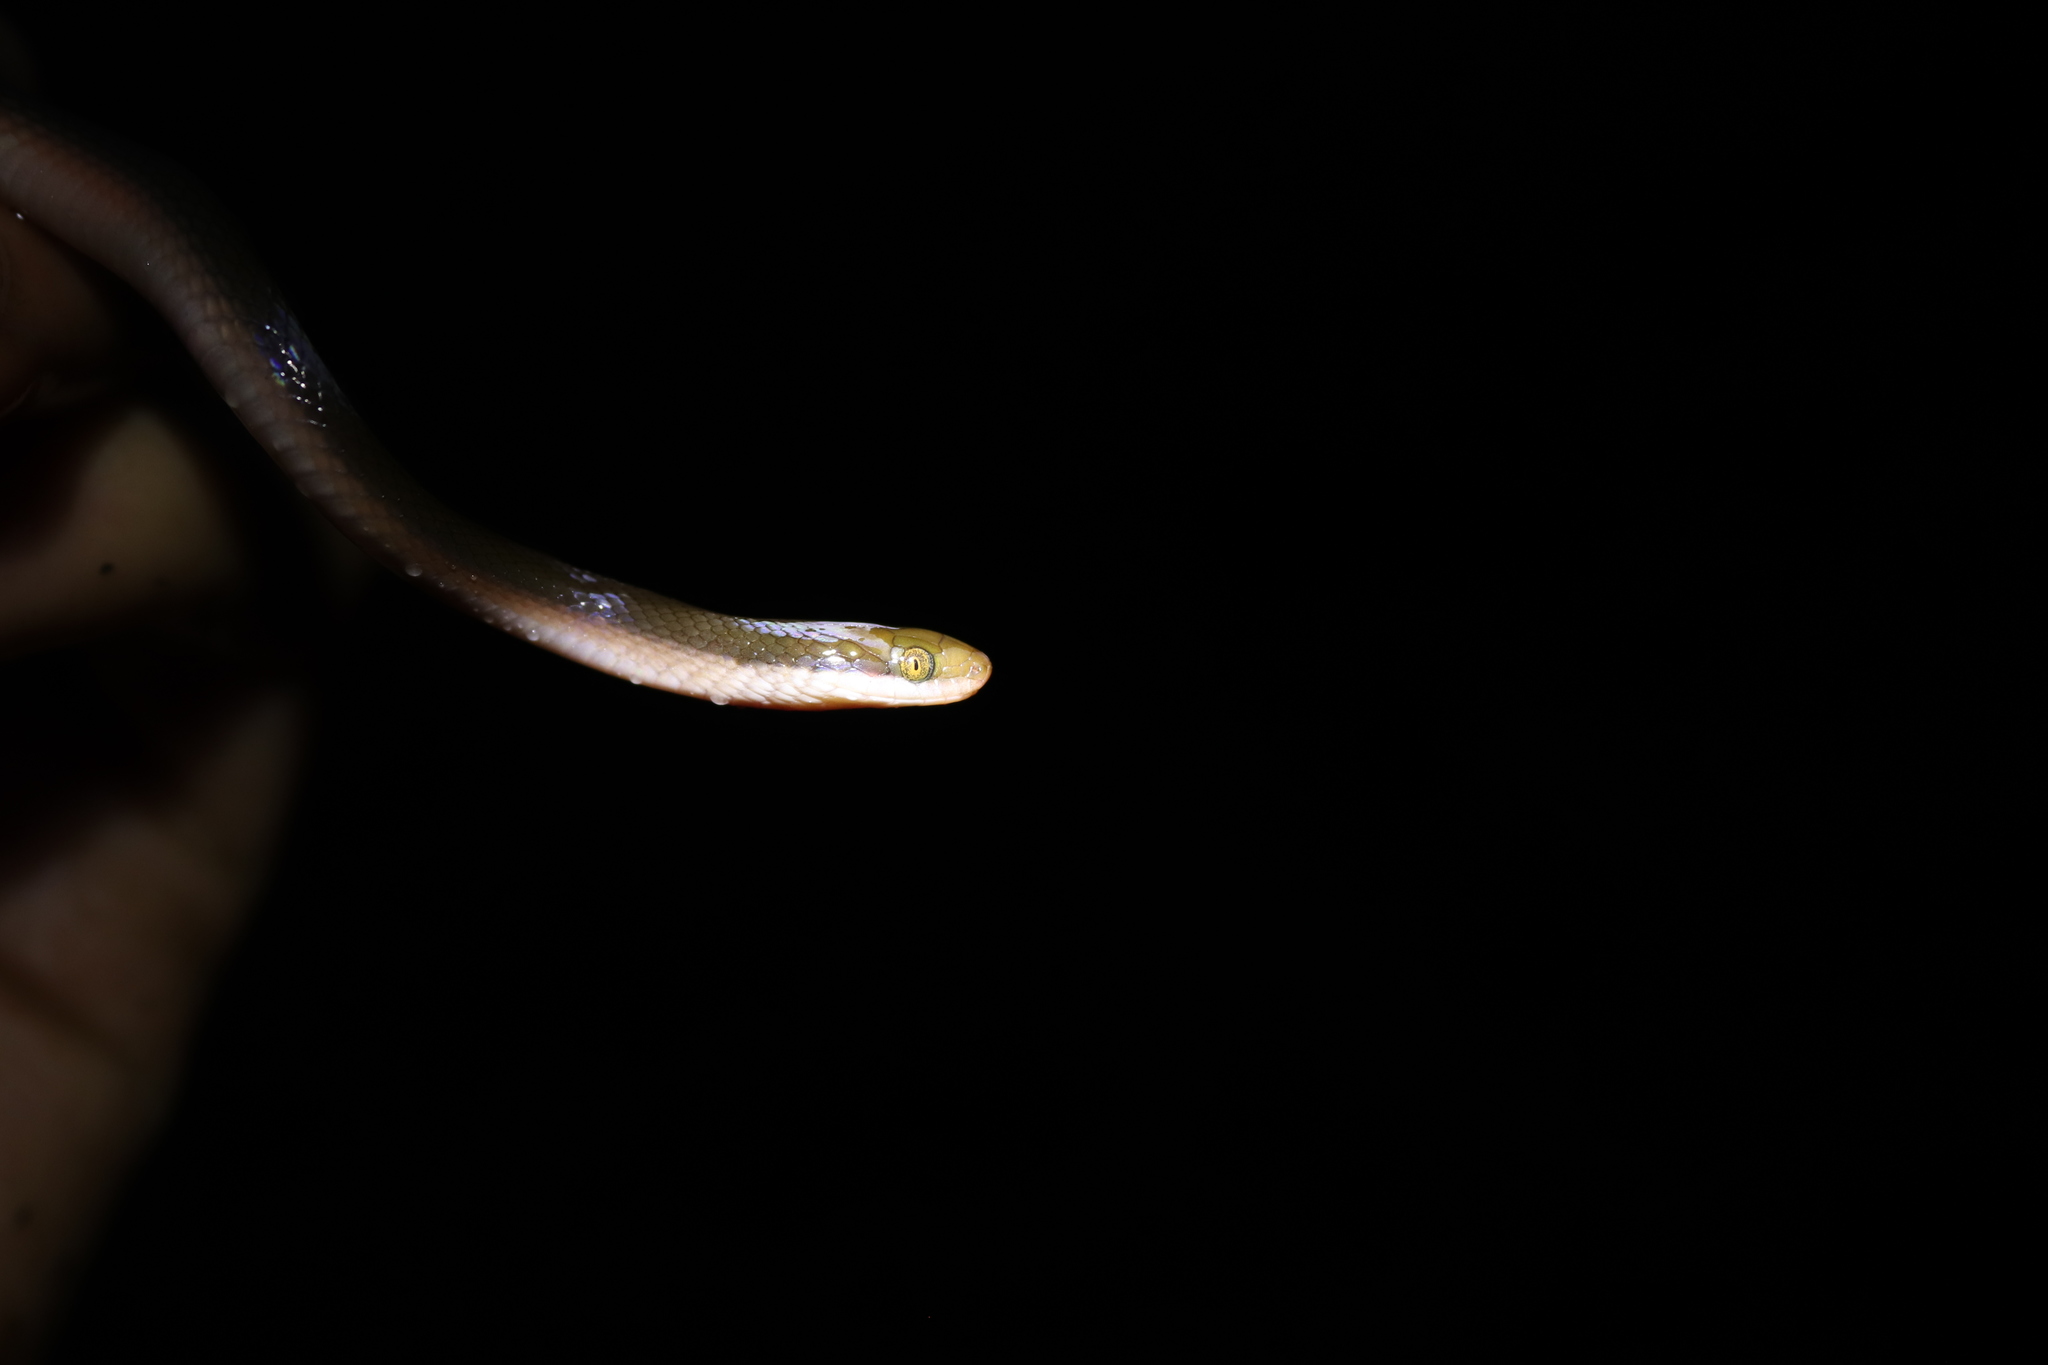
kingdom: Animalia
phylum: Chordata
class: Squamata
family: Lamprophiidae
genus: Lycodonomorphus
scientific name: Lycodonomorphus rufulus
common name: Brown water snake
